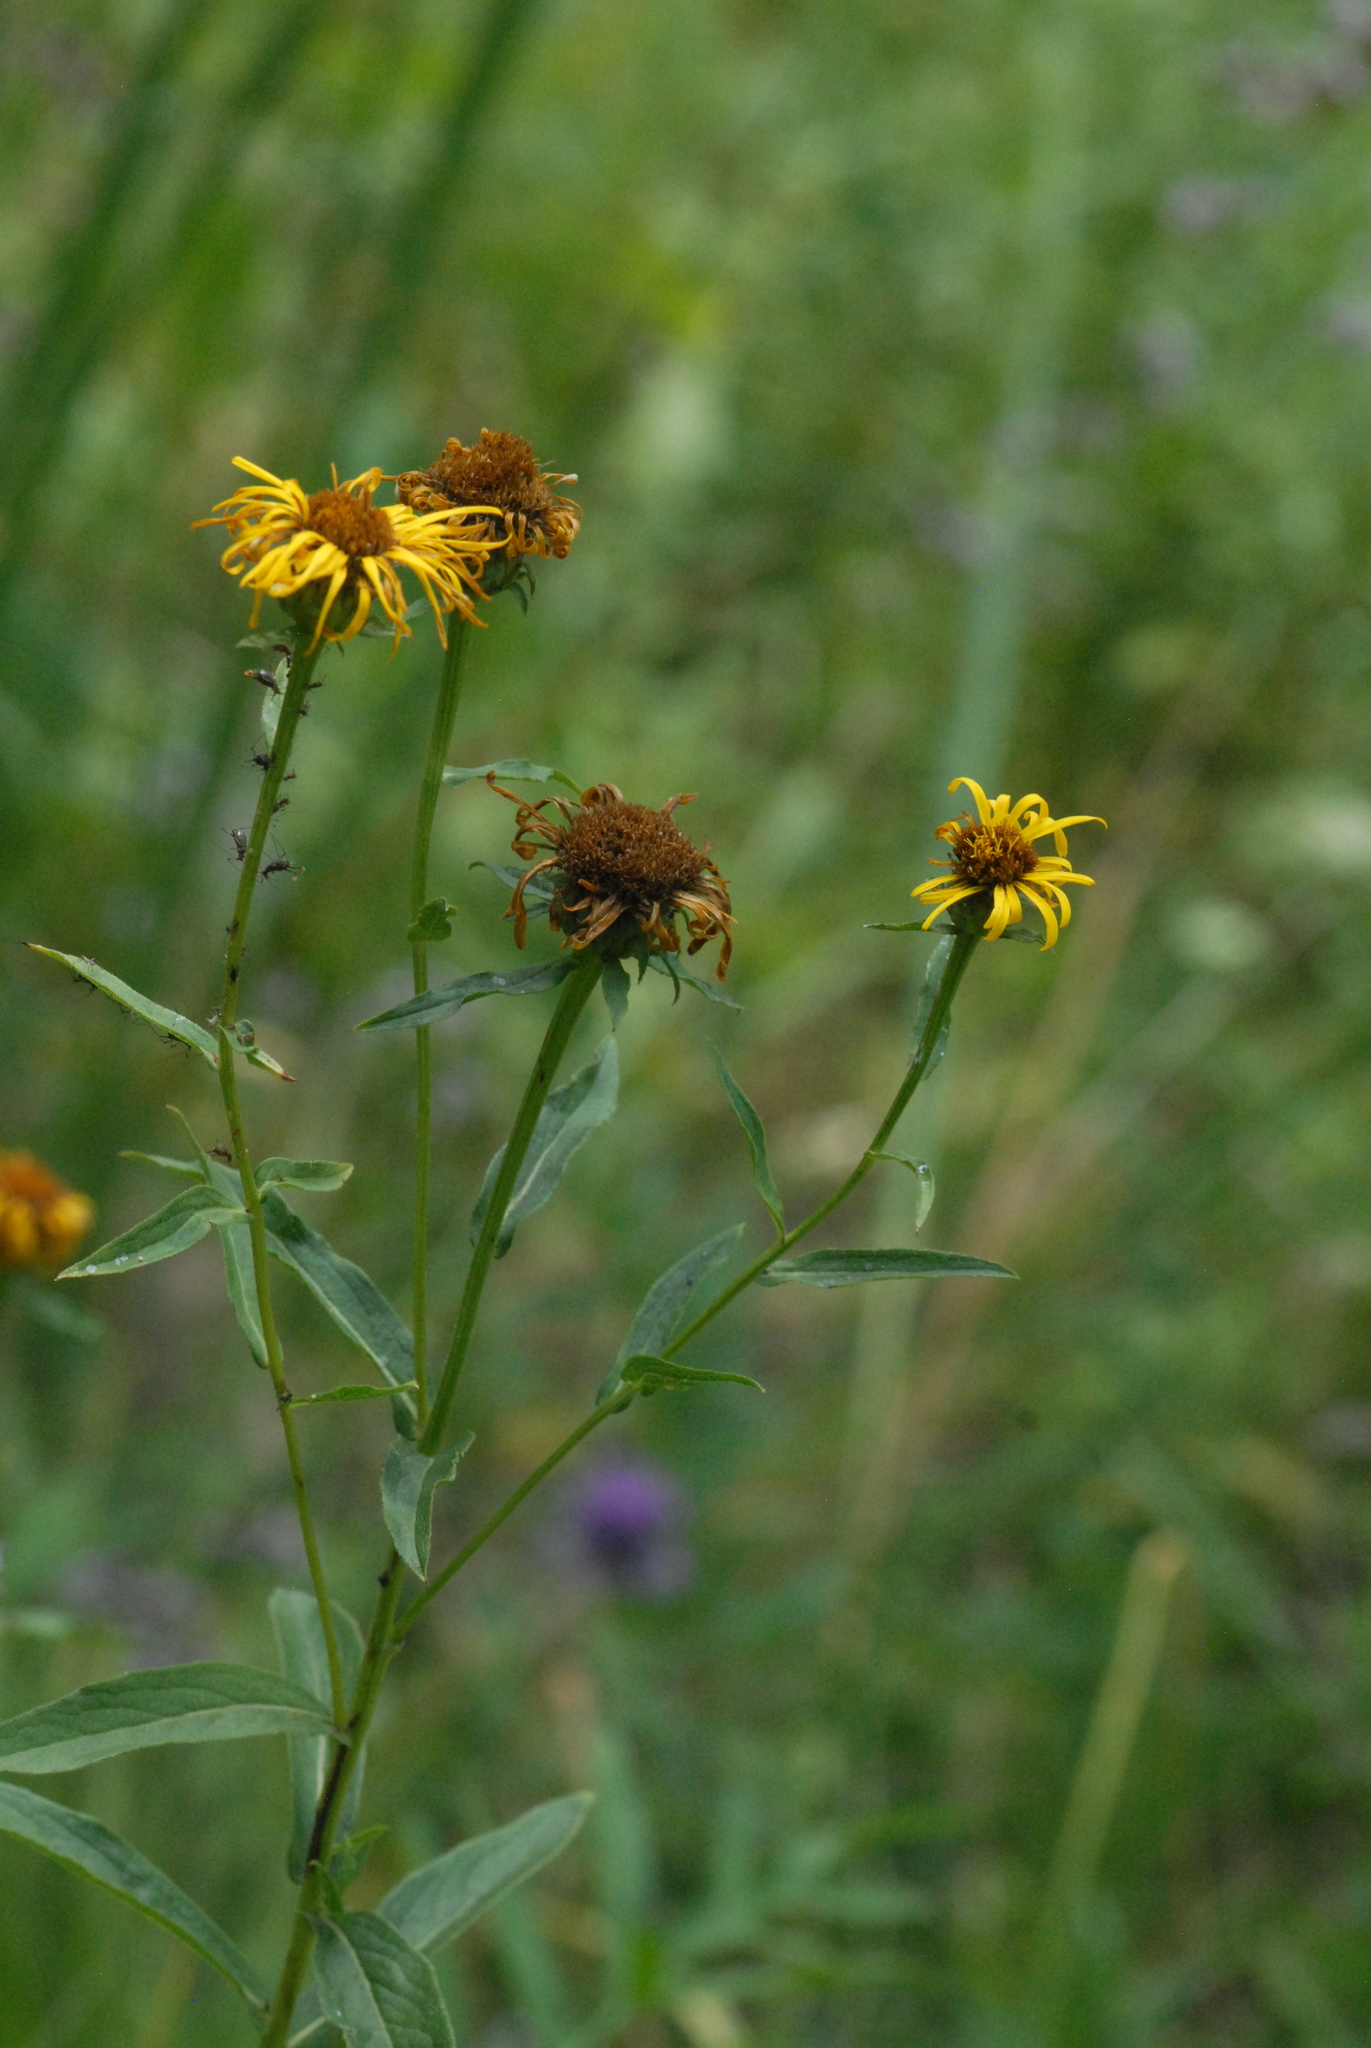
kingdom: Plantae
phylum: Tracheophyta
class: Magnoliopsida
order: Asterales
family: Asteraceae
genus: Pentanema
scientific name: Pentanema salicinum
